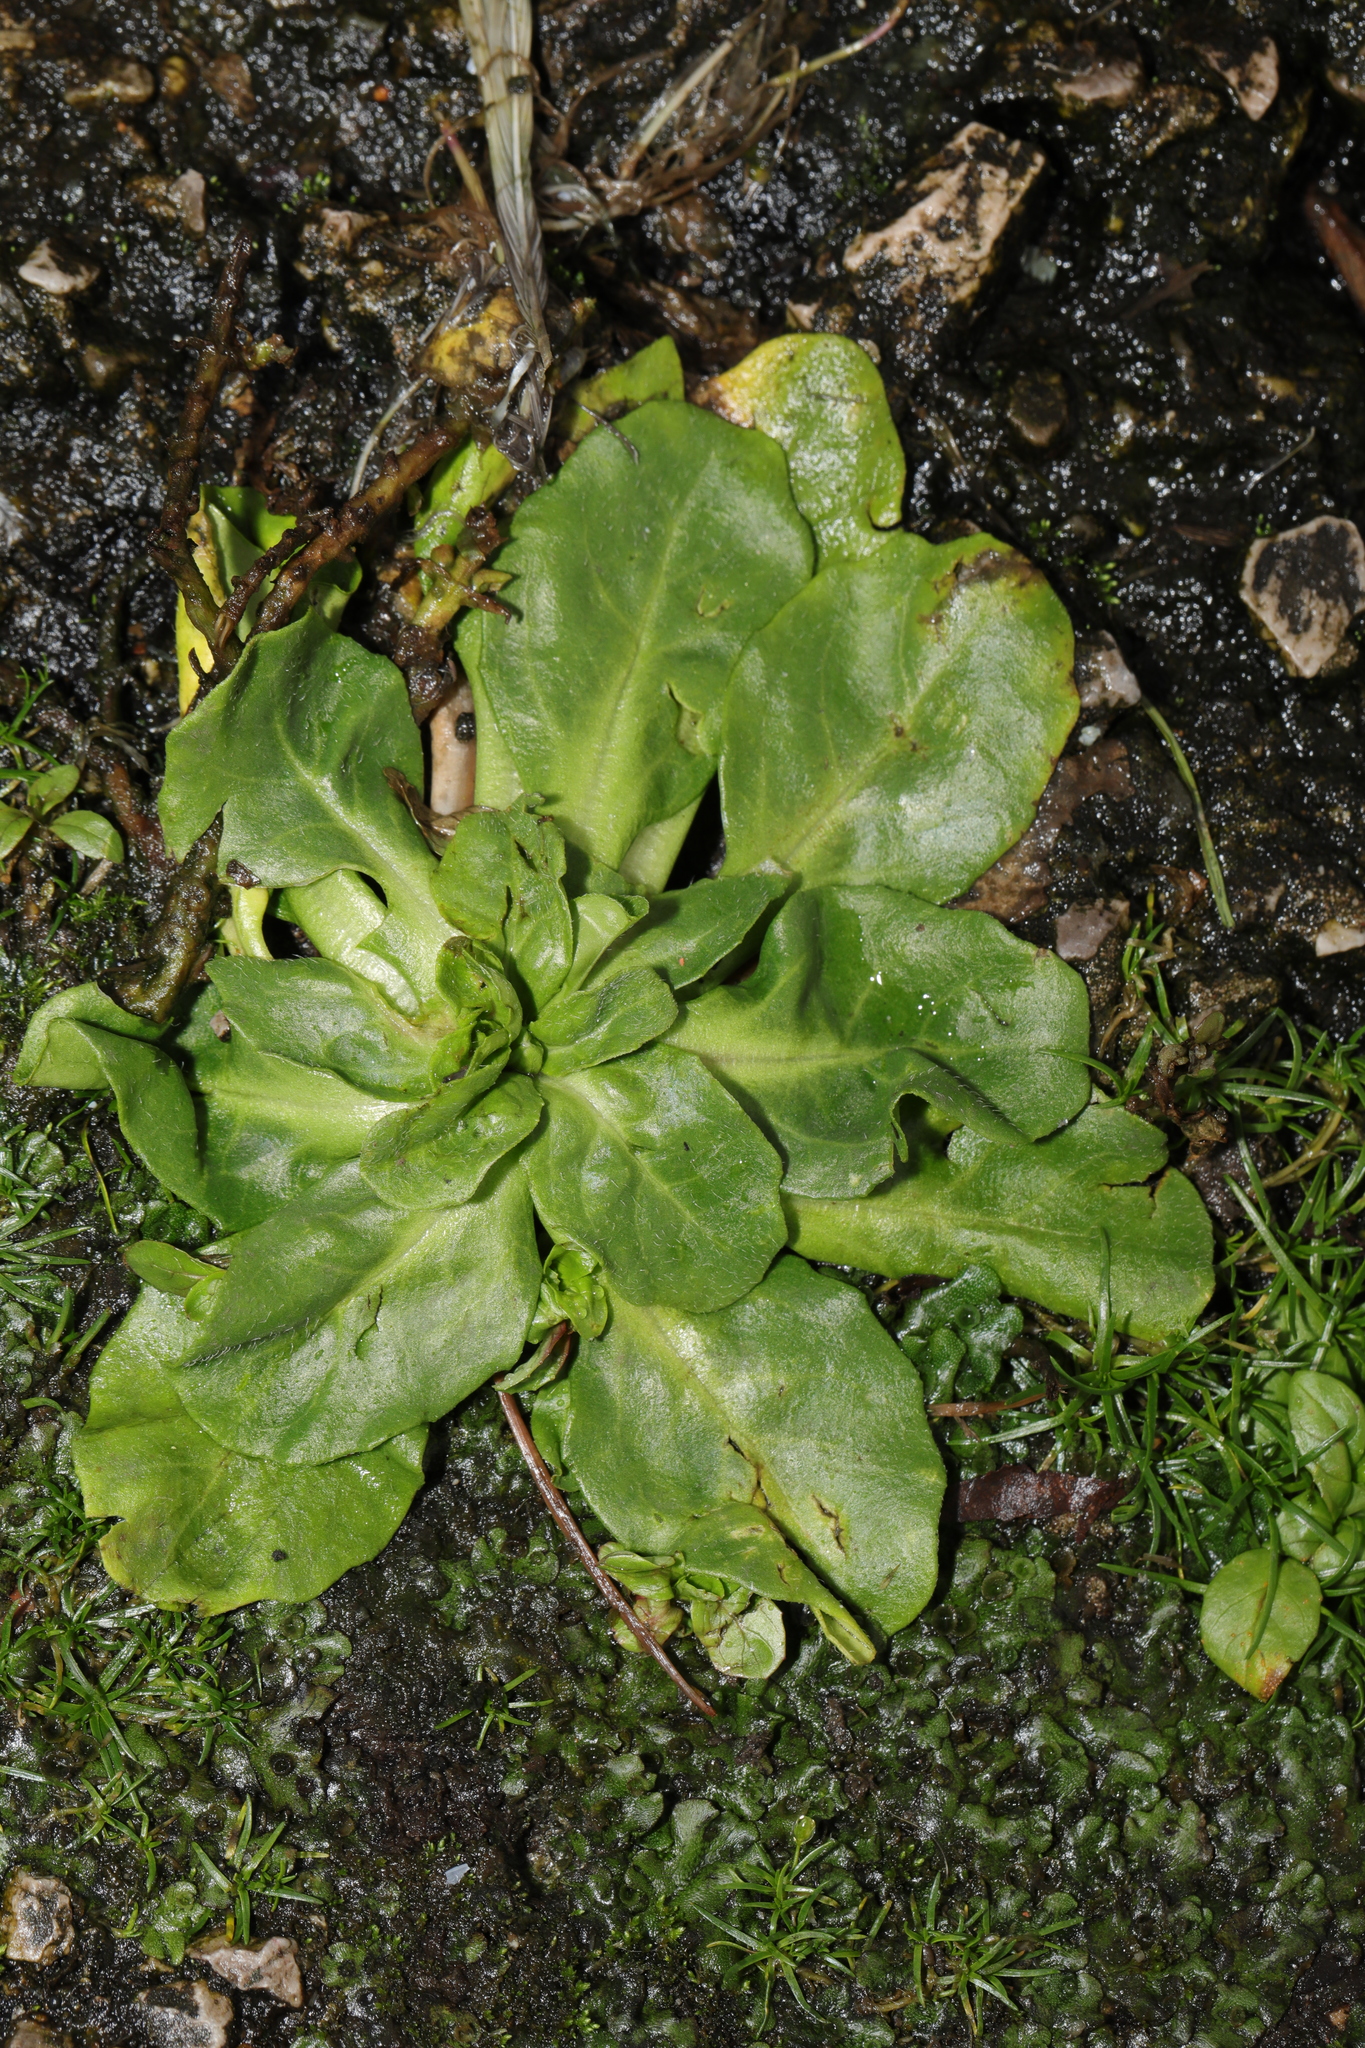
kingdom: Plantae
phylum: Tracheophyta
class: Magnoliopsida
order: Asterales
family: Asteraceae
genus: Bellis
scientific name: Bellis perennis
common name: Lawndaisy
